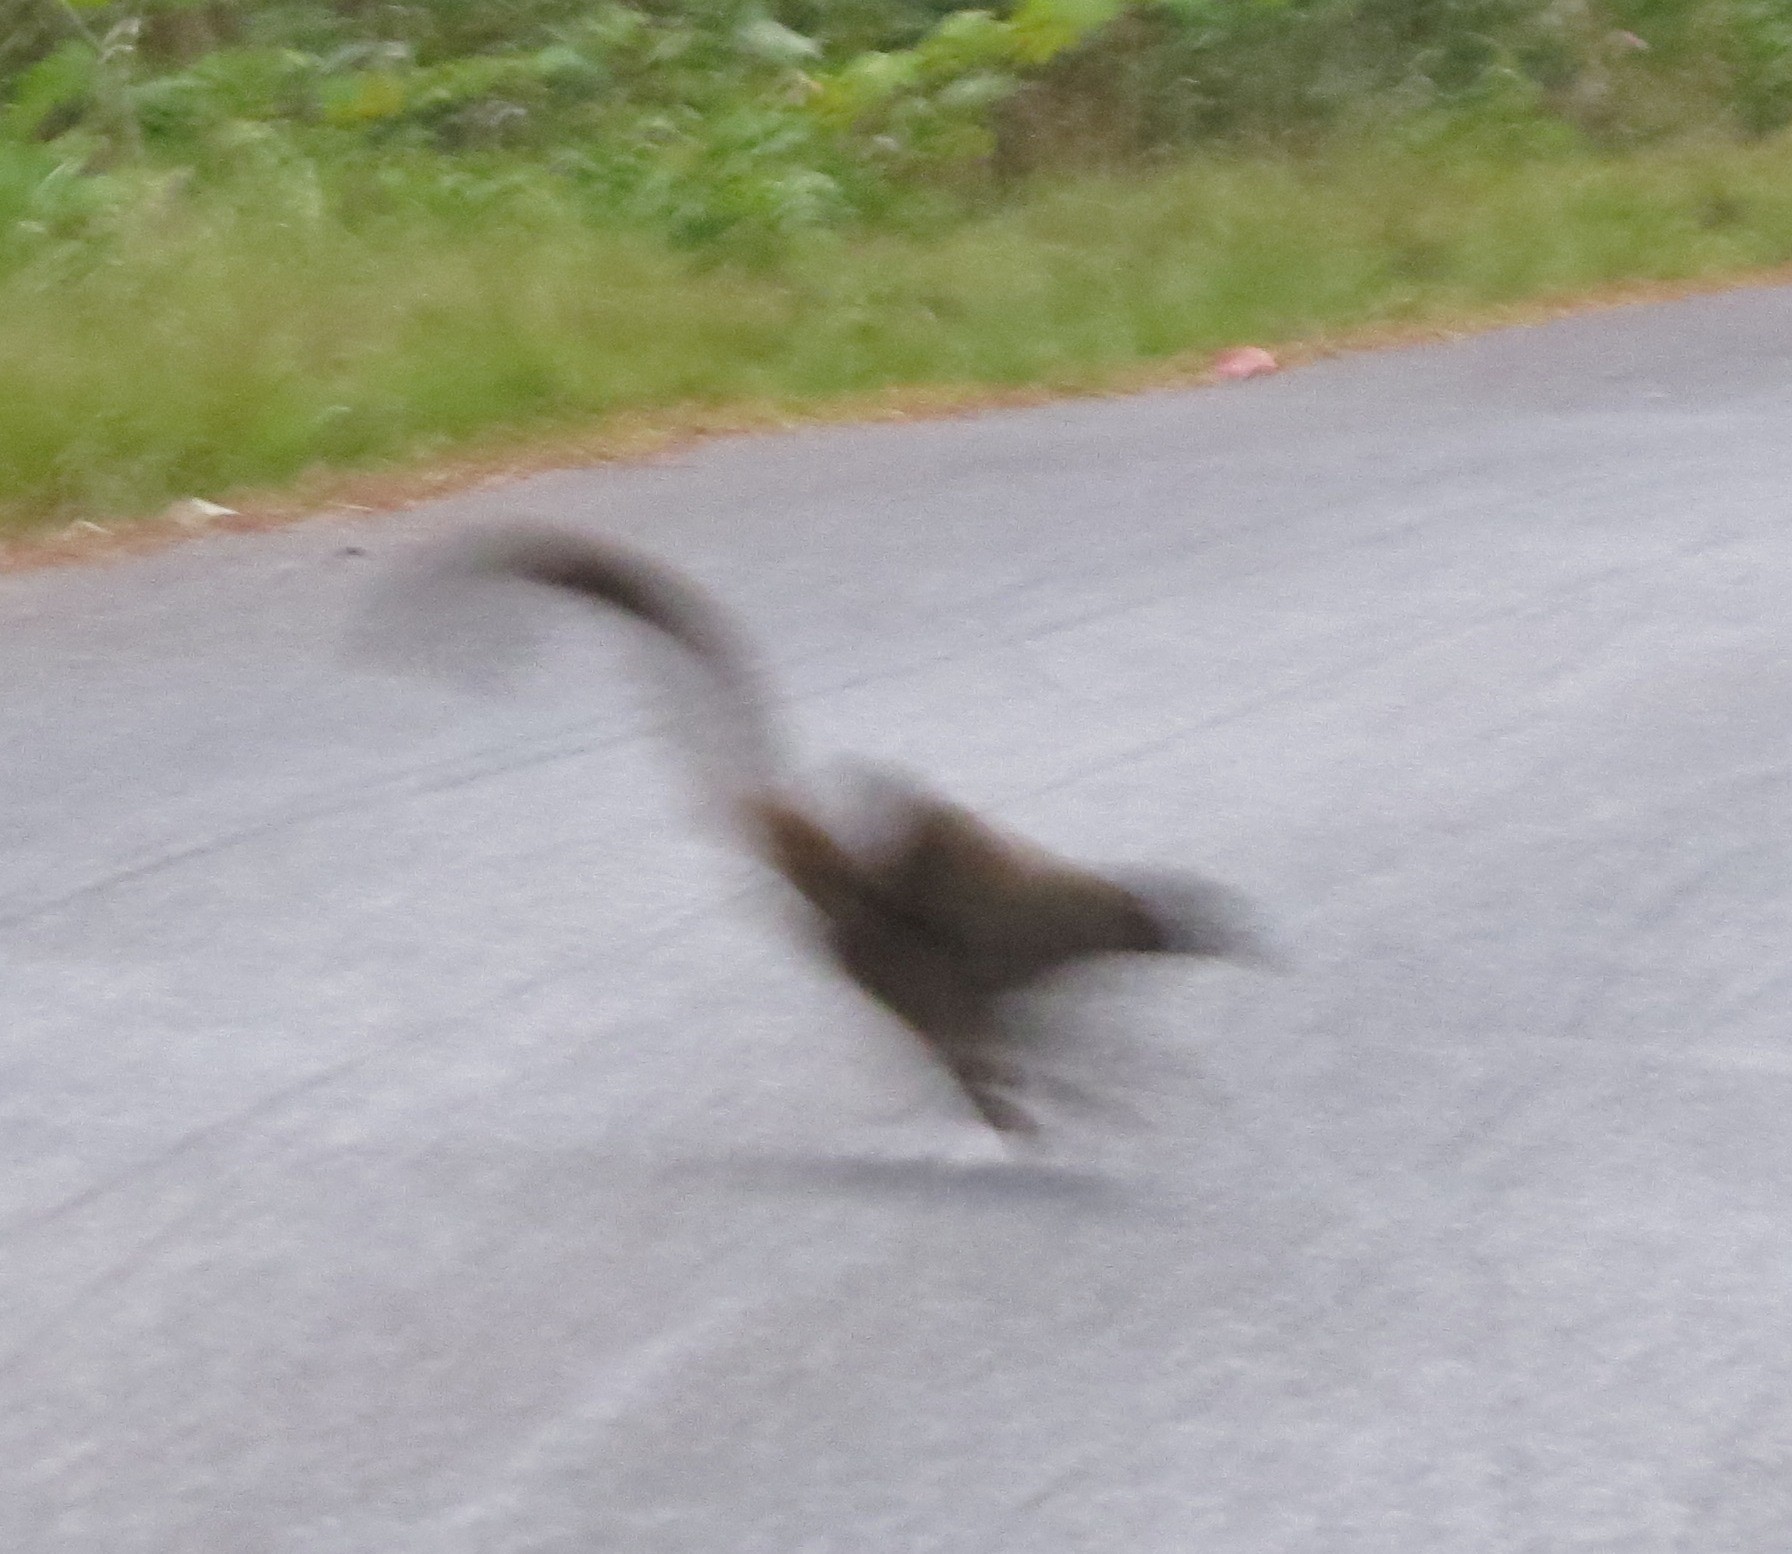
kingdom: Animalia
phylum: Chordata
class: Mammalia
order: Primates
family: Lemuridae
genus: Eulemur
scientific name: Eulemur fulvus
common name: Brown lemur
